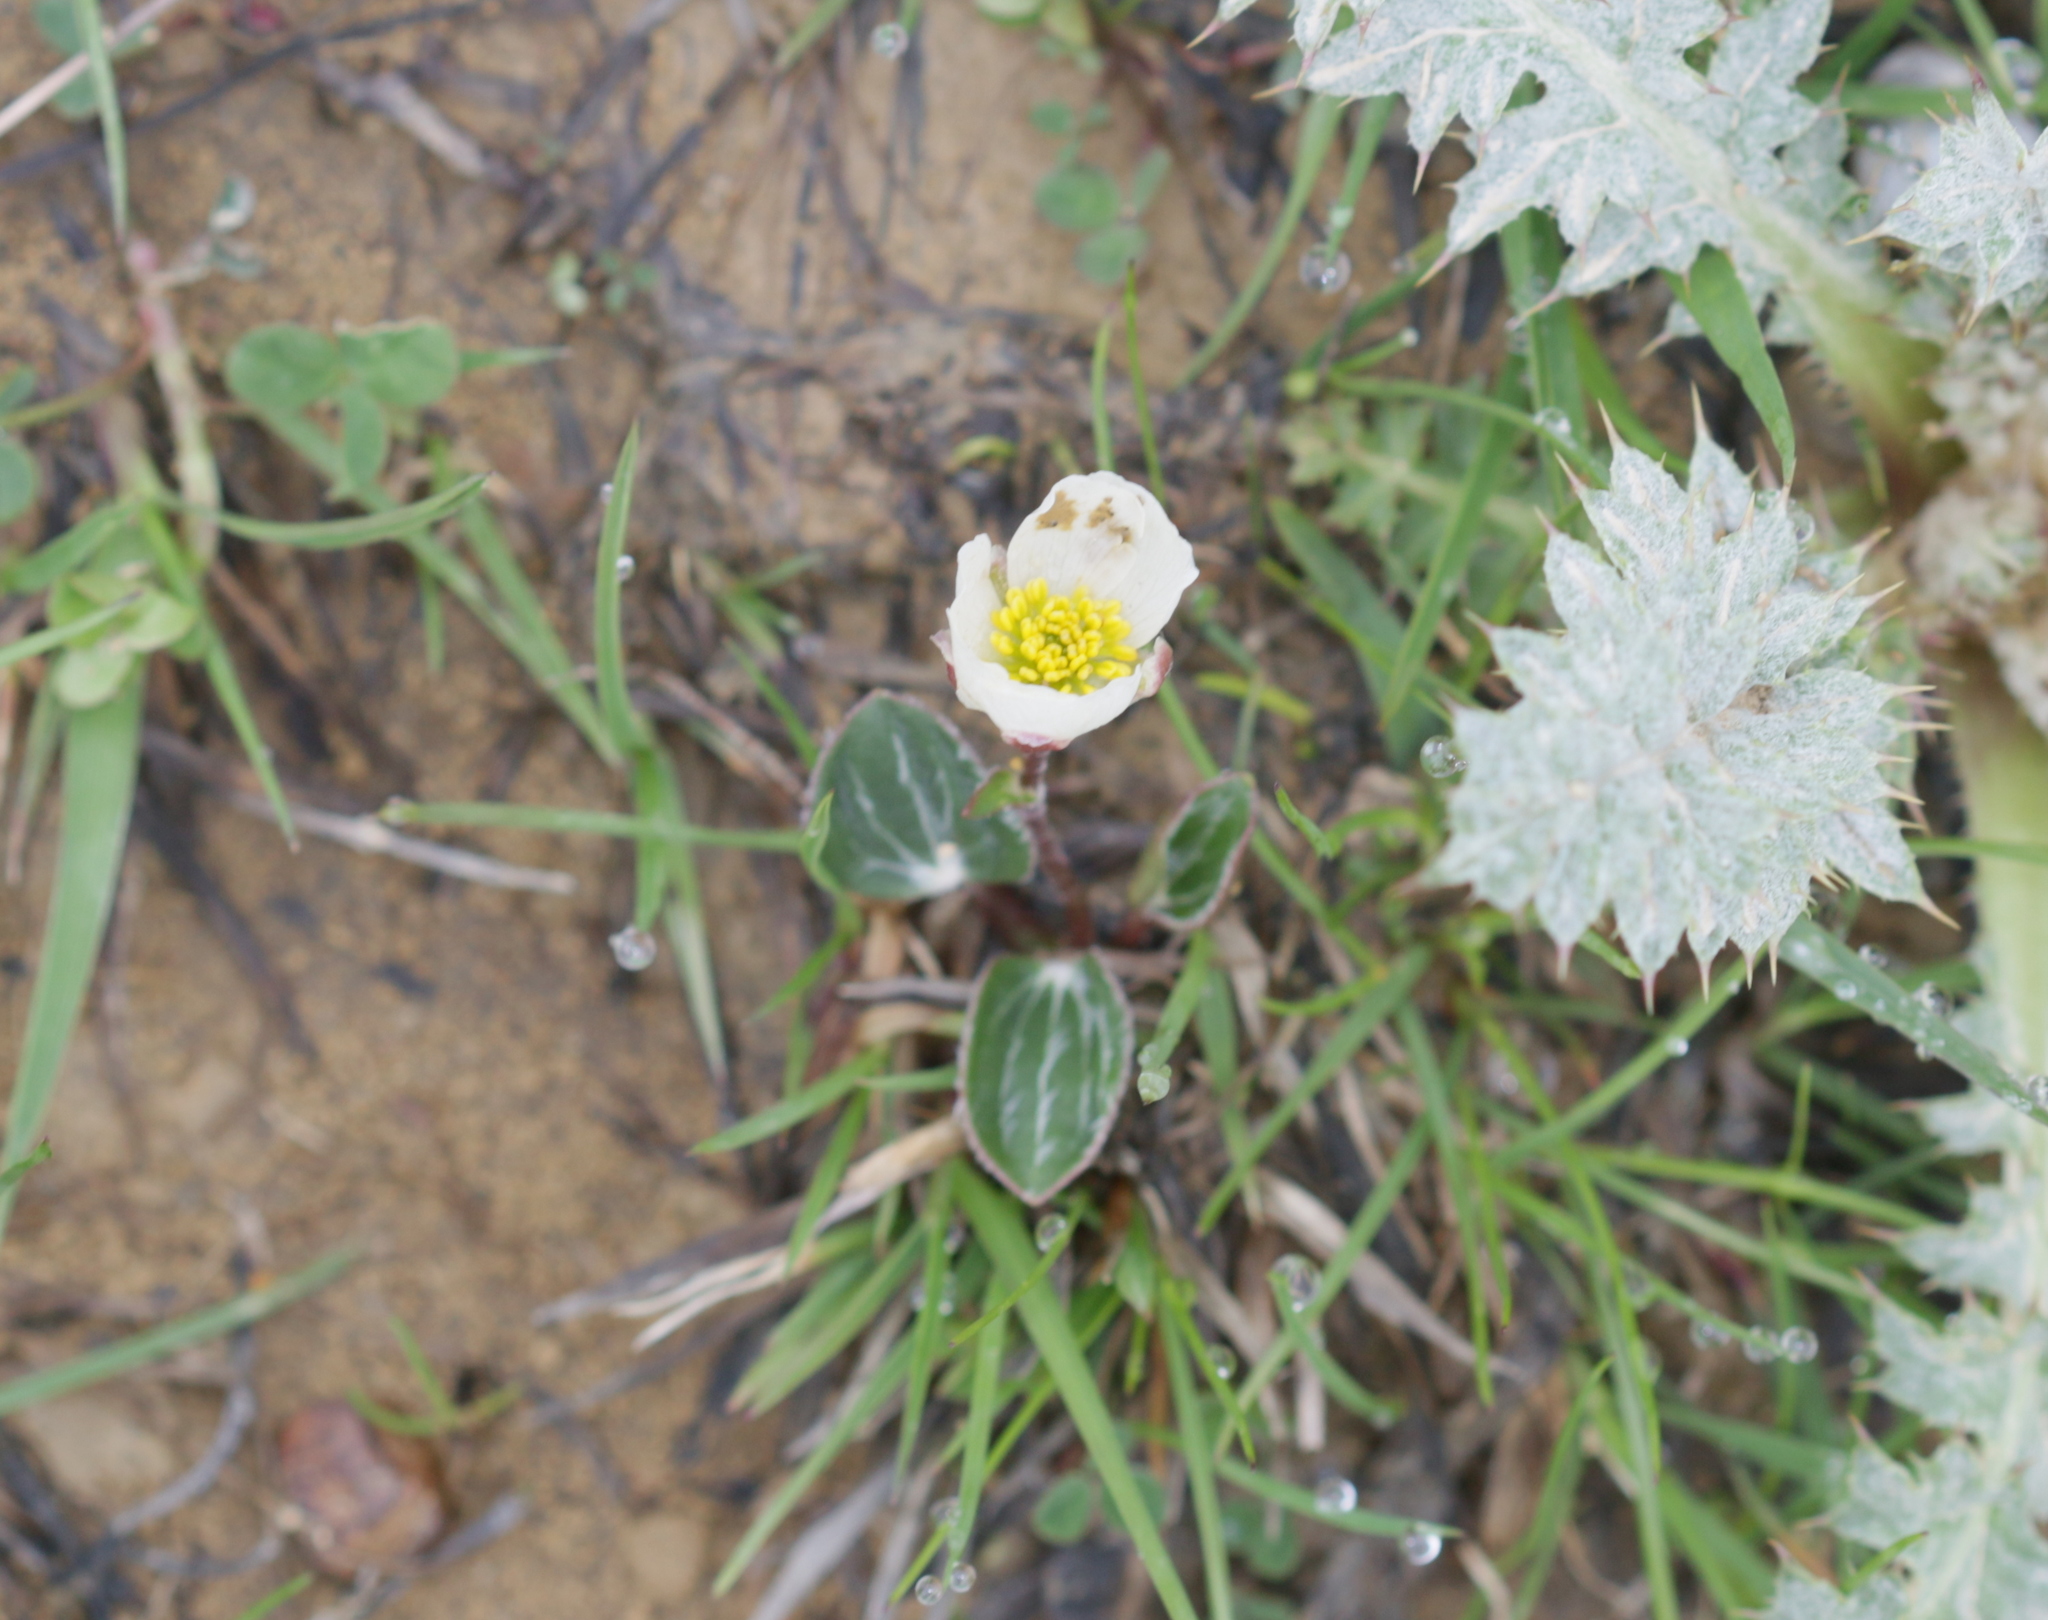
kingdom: Plantae
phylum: Tracheophyta
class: Magnoliopsida
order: Ranunculales
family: Ranunculaceae
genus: Ranunculus
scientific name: Ranunculus parnassiifolius
